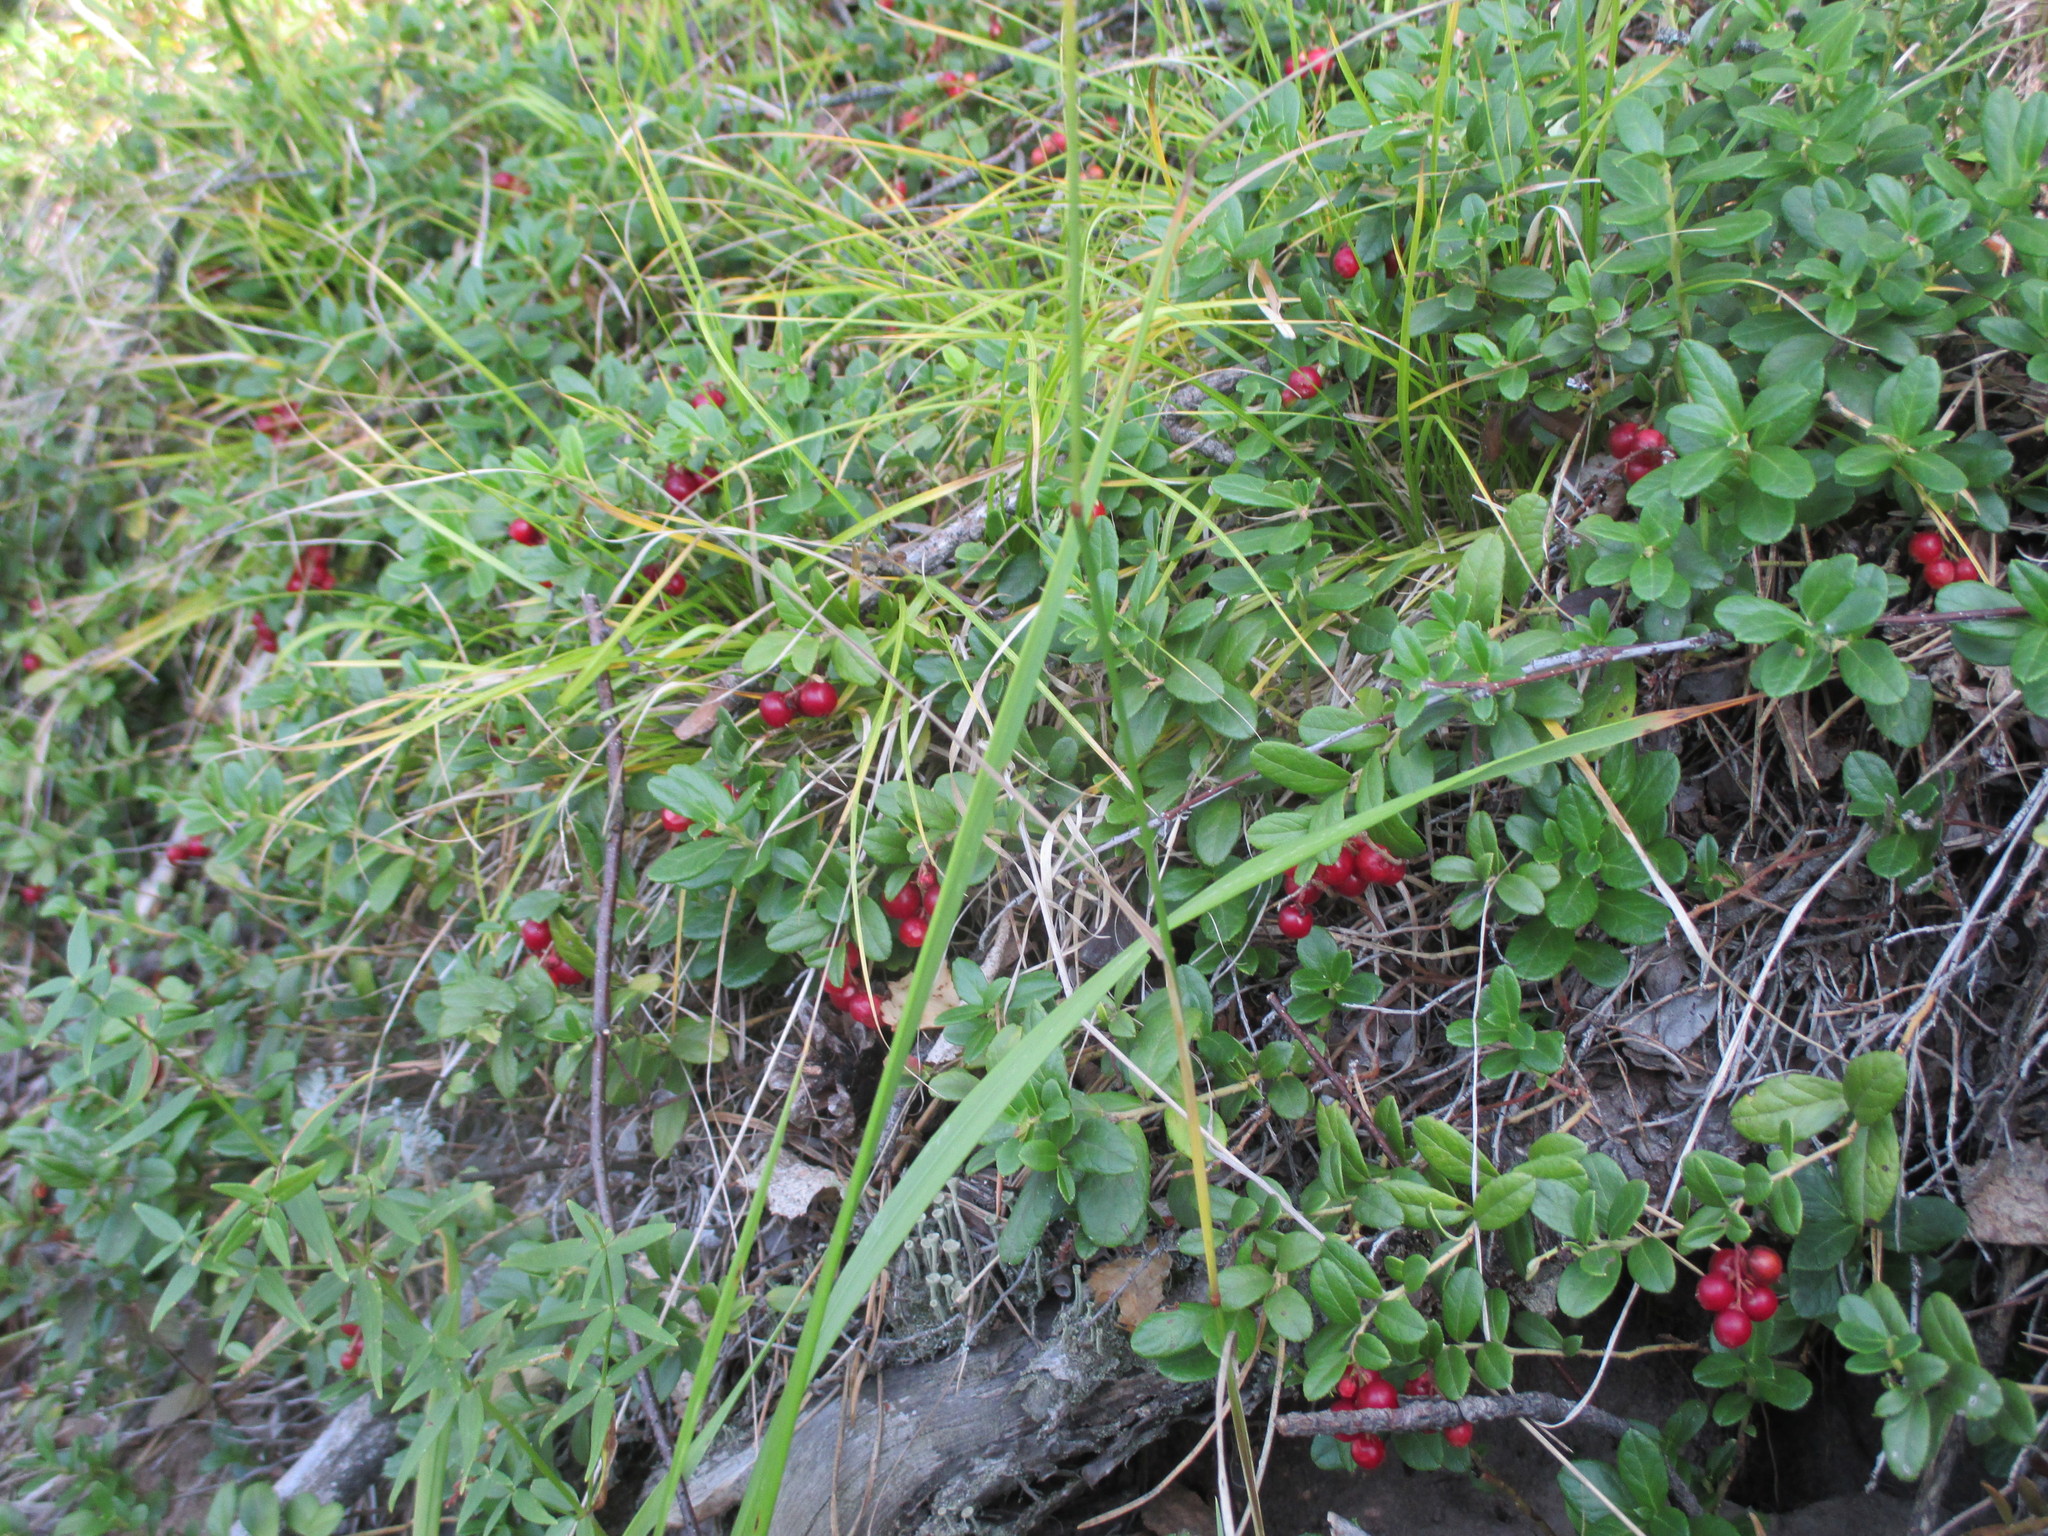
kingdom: Plantae
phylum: Tracheophyta
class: Magnoliopsida
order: Ericales
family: Ericaceae
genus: Vaccinium
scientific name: Vaccinium vitis-idaea
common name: Cowberry
